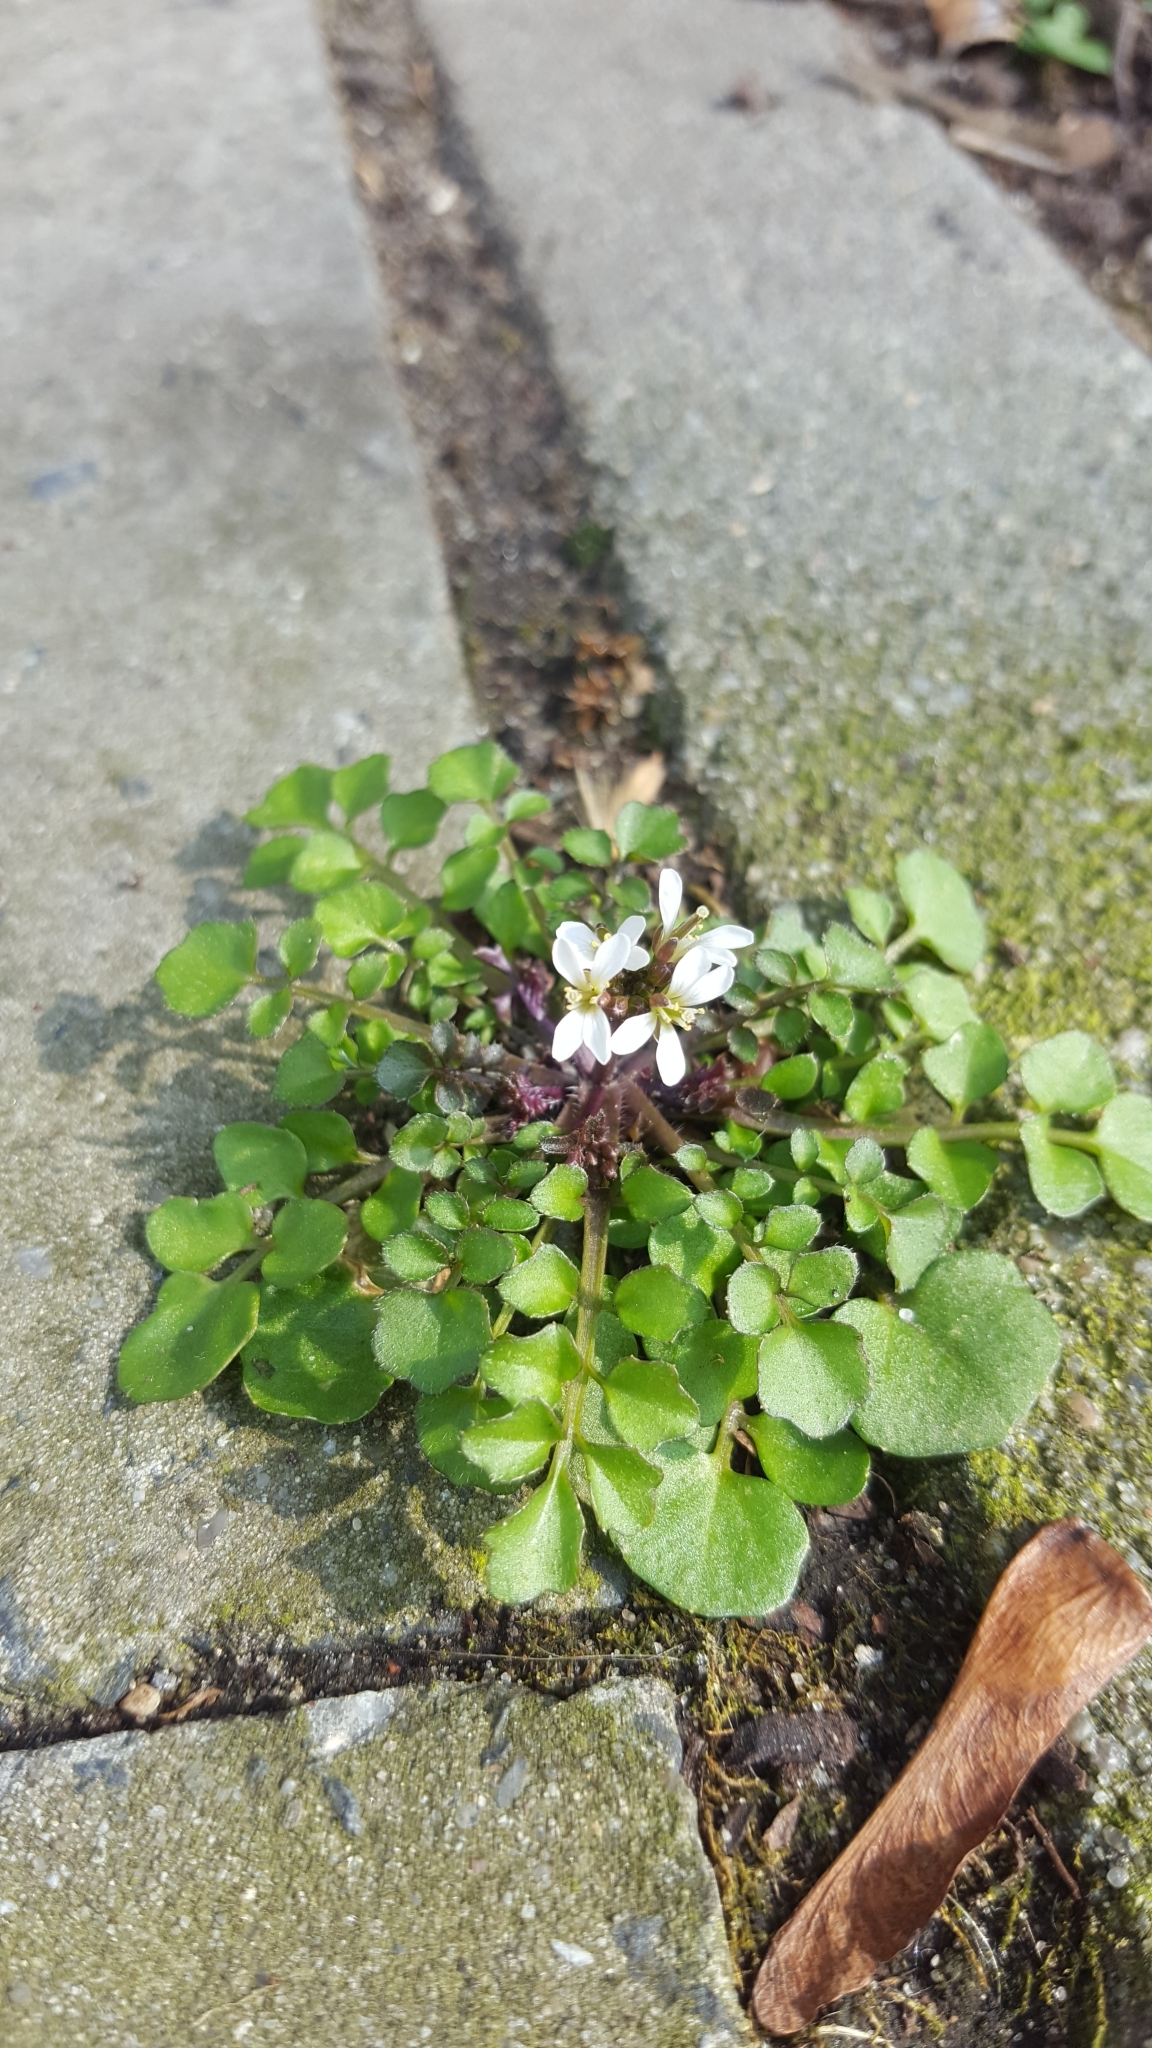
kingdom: Plantae
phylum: Tracheophyta
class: Magnoliopsida
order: Brassicales
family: Brassicaceae
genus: Cardamine
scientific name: Cardamine hirsuta
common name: Hairy bittercress
